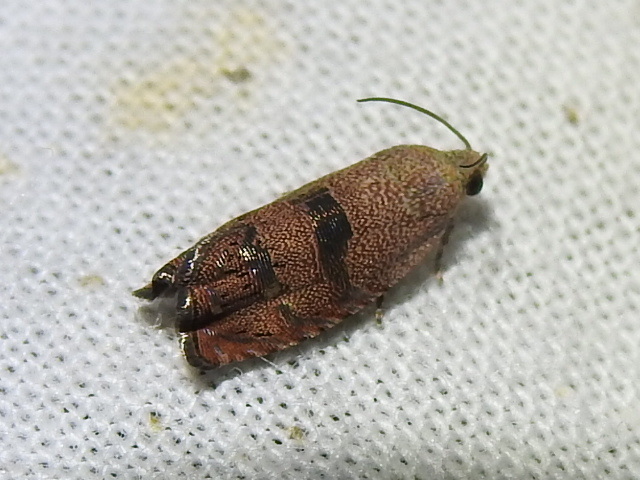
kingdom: Animalia
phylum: Arthropoda
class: Insecta
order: Lepidoptera
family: Tortricidae
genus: Cydia
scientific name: Cydia latiferreana
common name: Filbertworm moth
